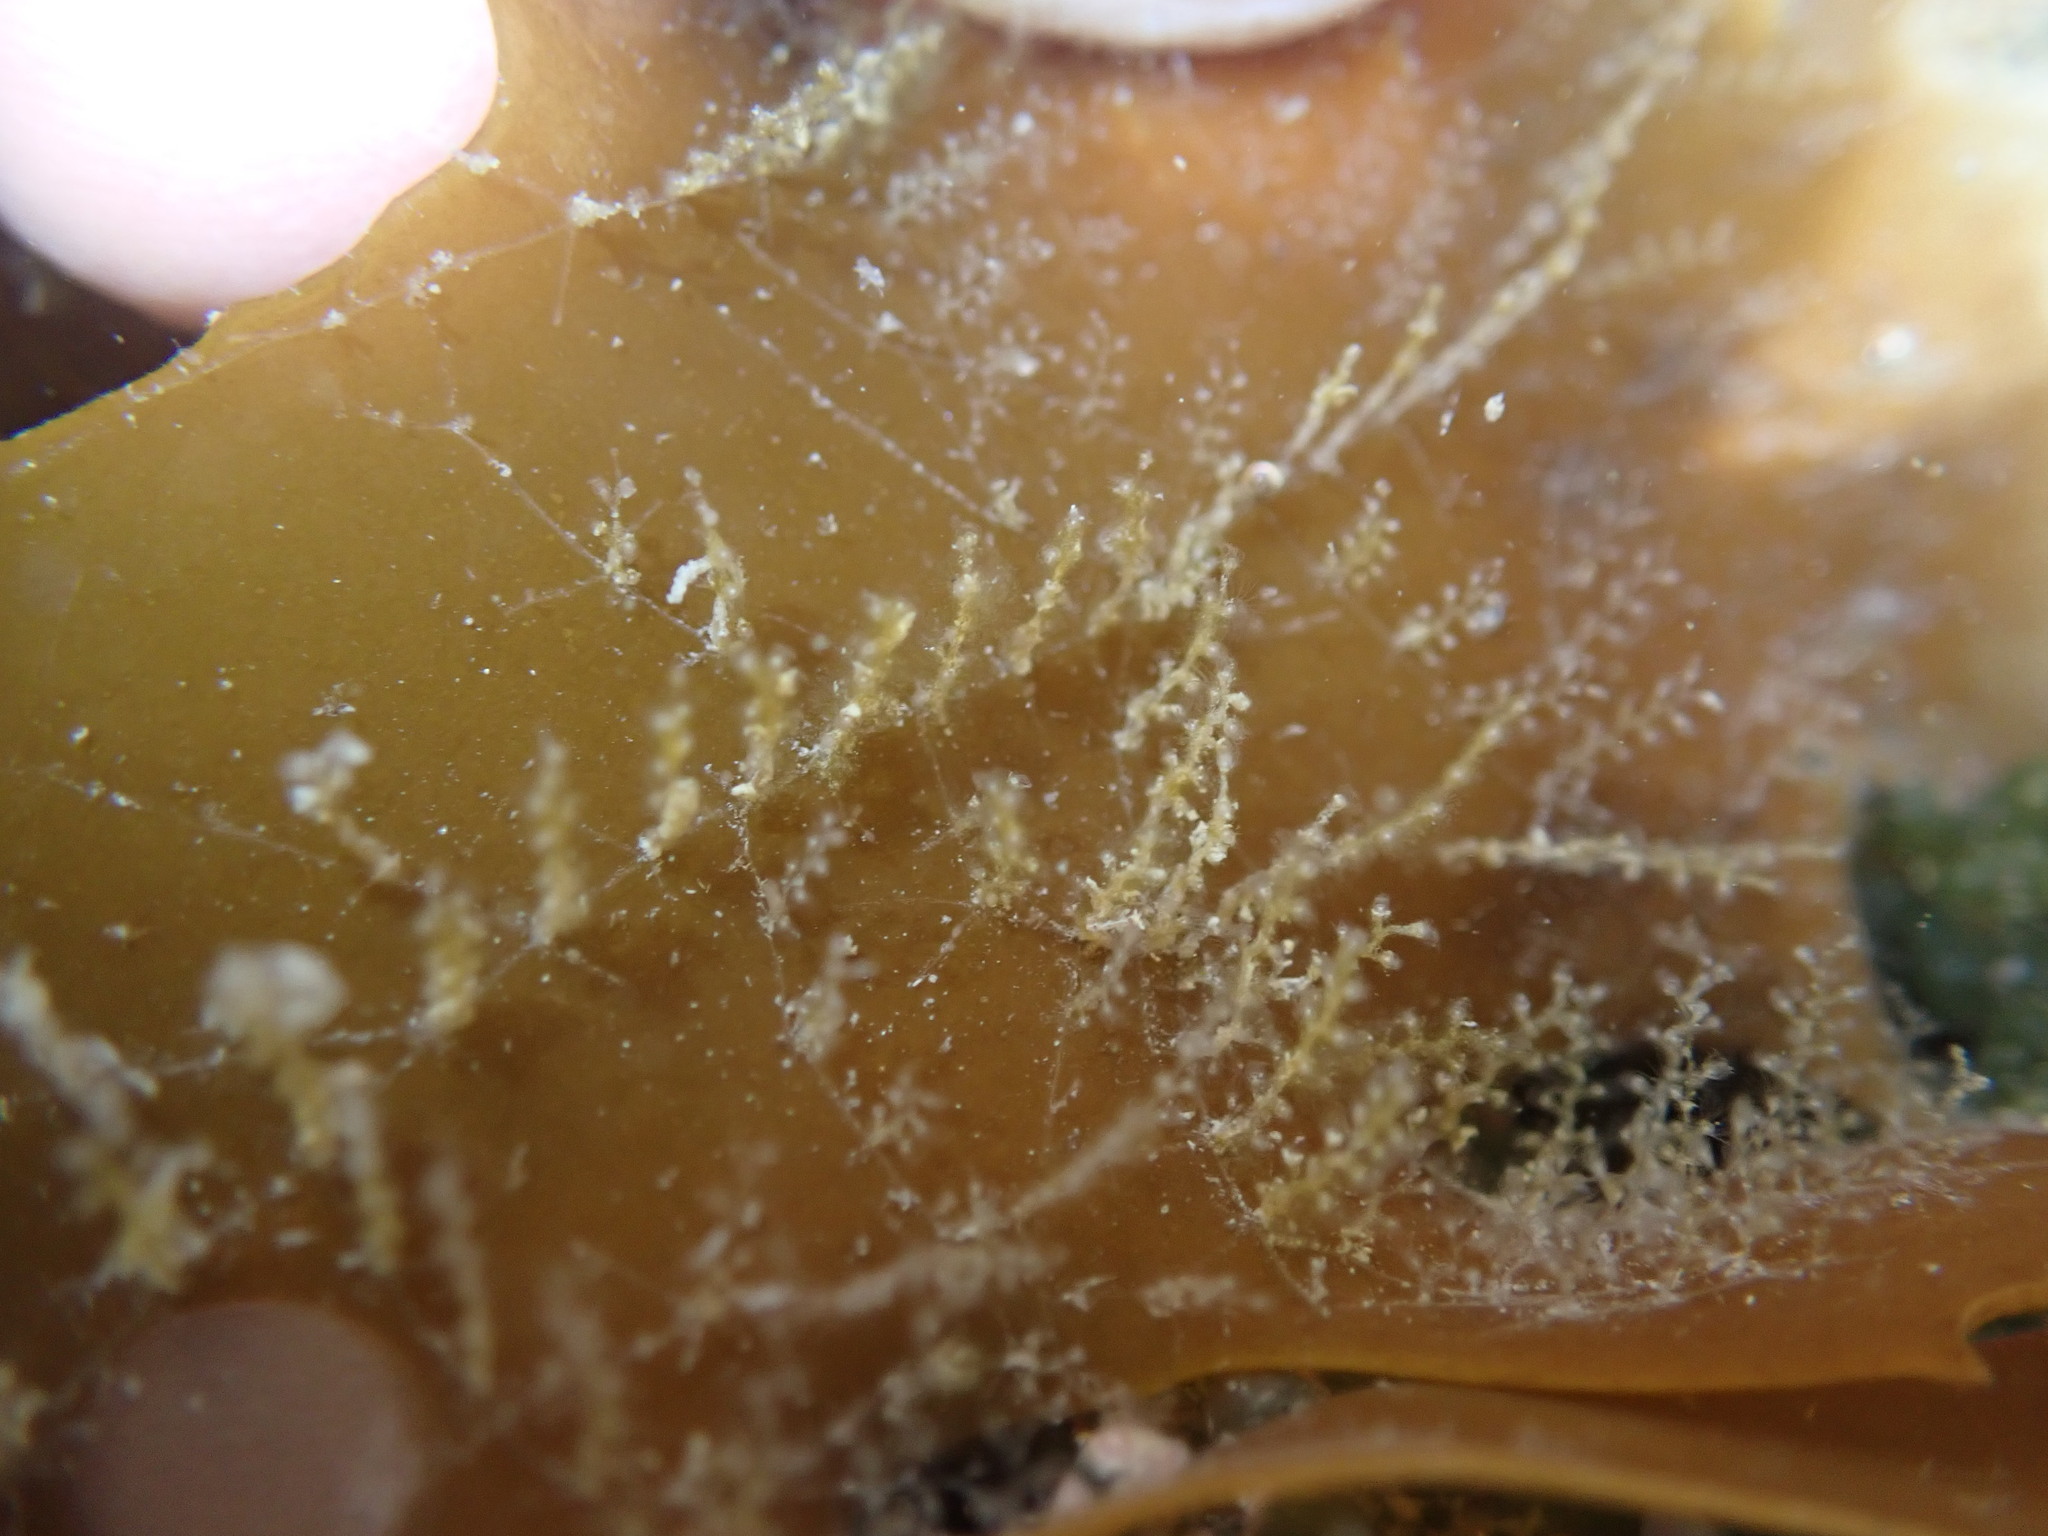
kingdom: Animalia
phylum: Cnidaria
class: Hydrozoa
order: Leptothecata
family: Campanulariidae
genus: Obelia
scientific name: Obelia geniculata
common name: Bell hydroid
